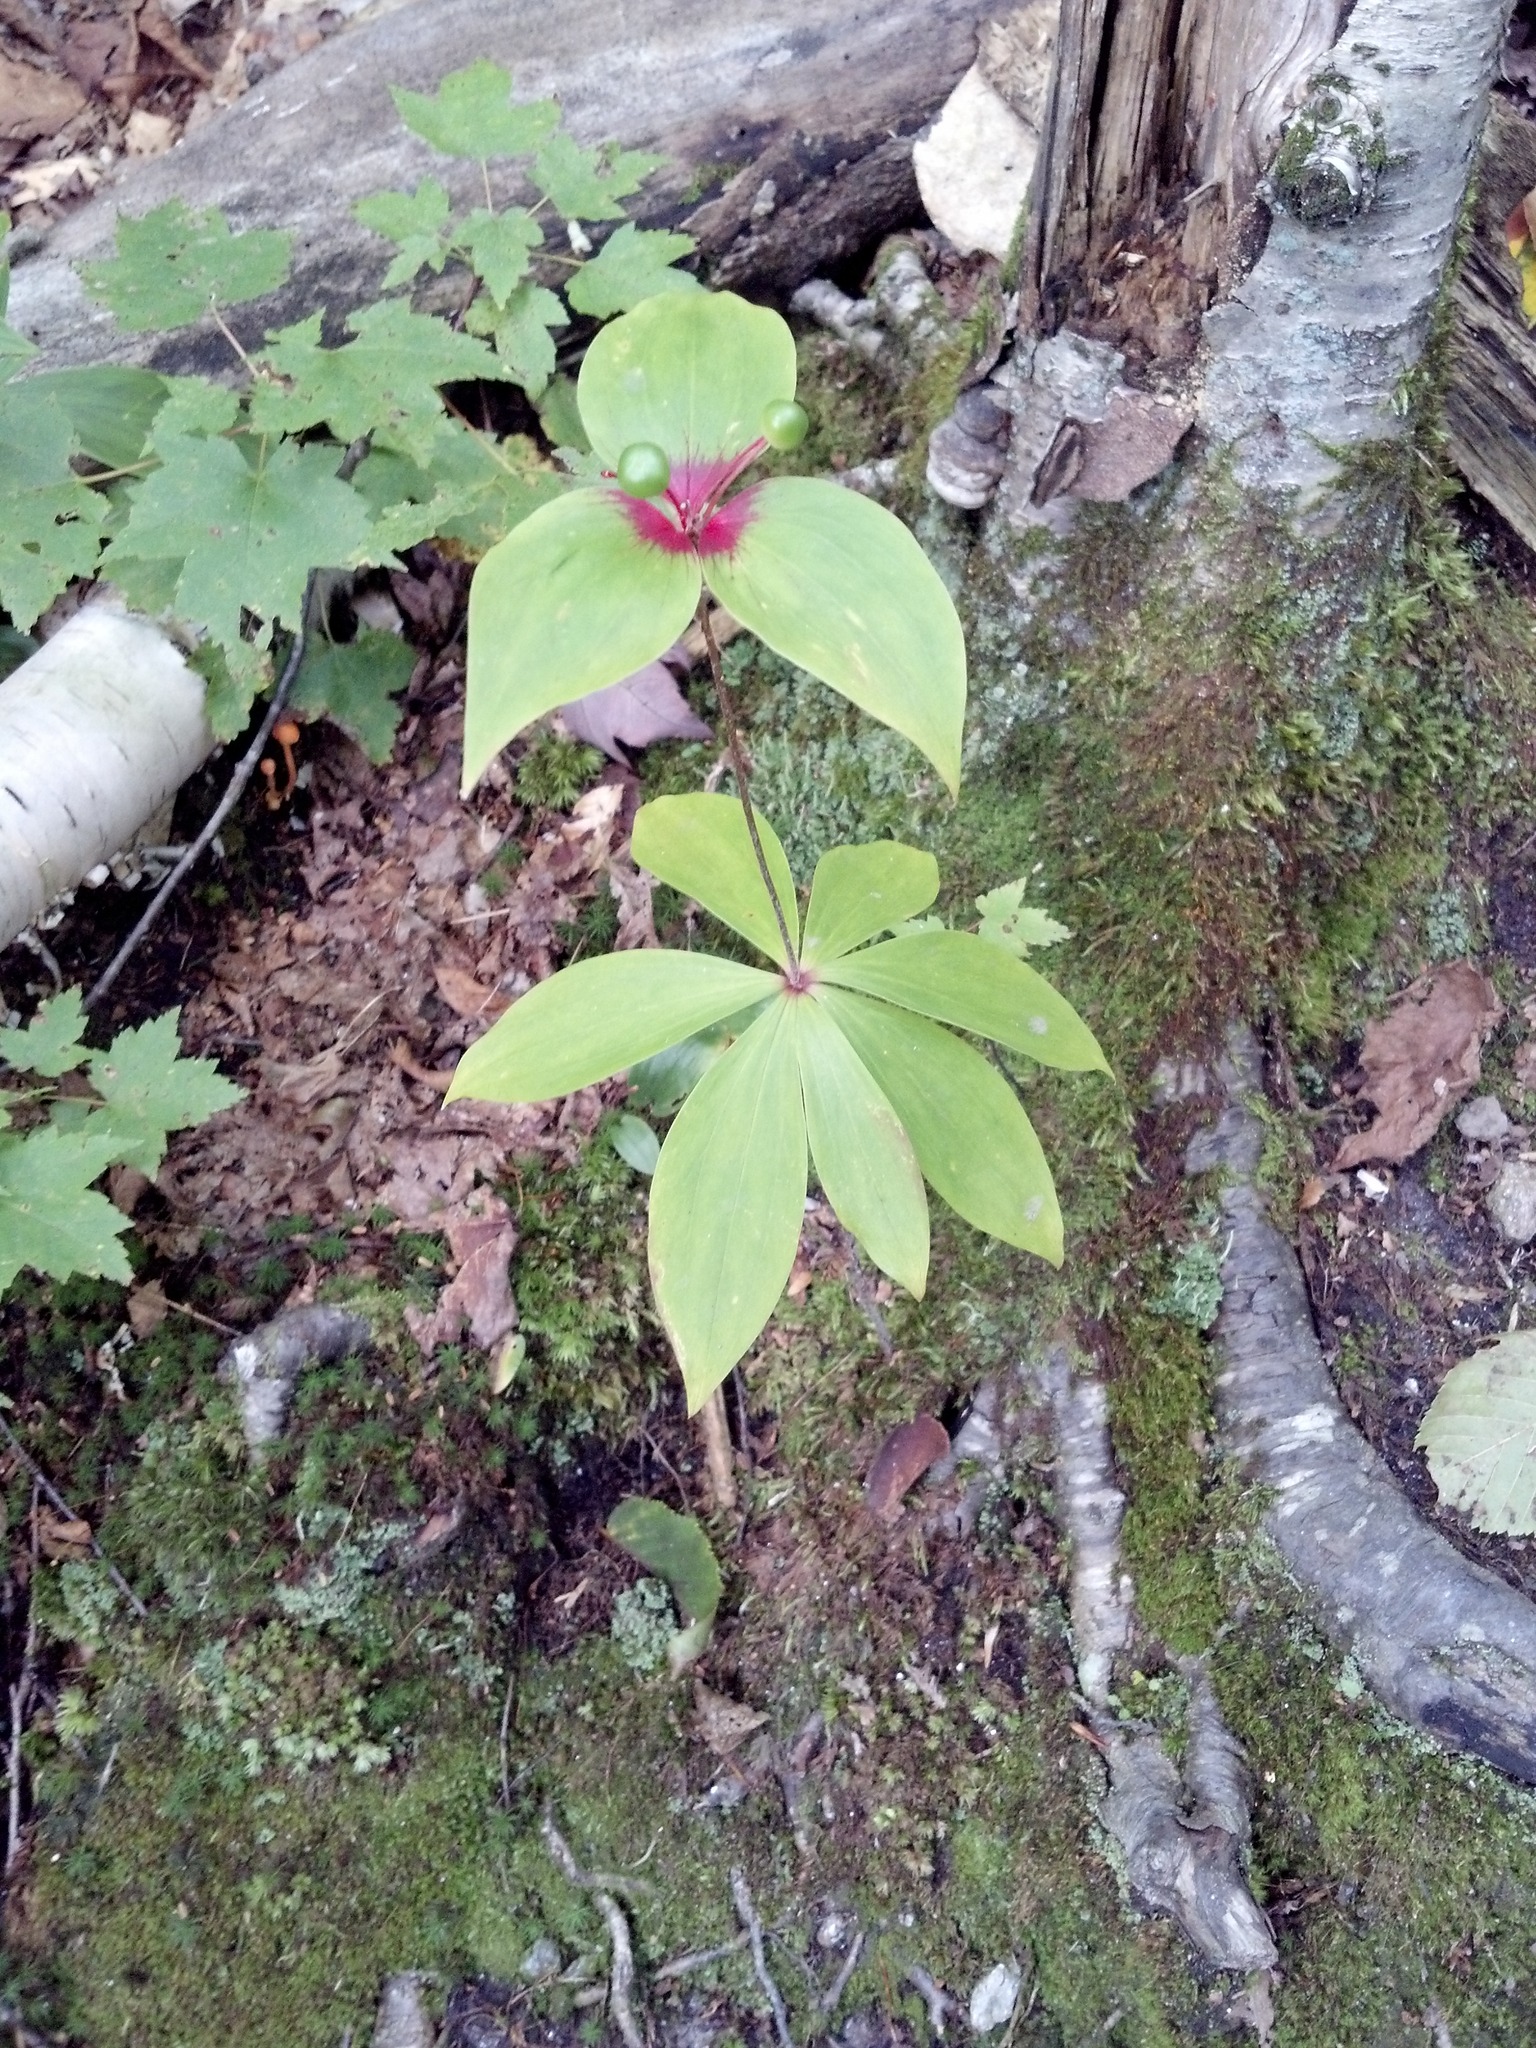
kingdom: Plantae
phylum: Tracheophyta
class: Liliopsida
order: Liliales
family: Liliaceae
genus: Medeola
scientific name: Medeola virginiana
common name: Indian cucumber-root
